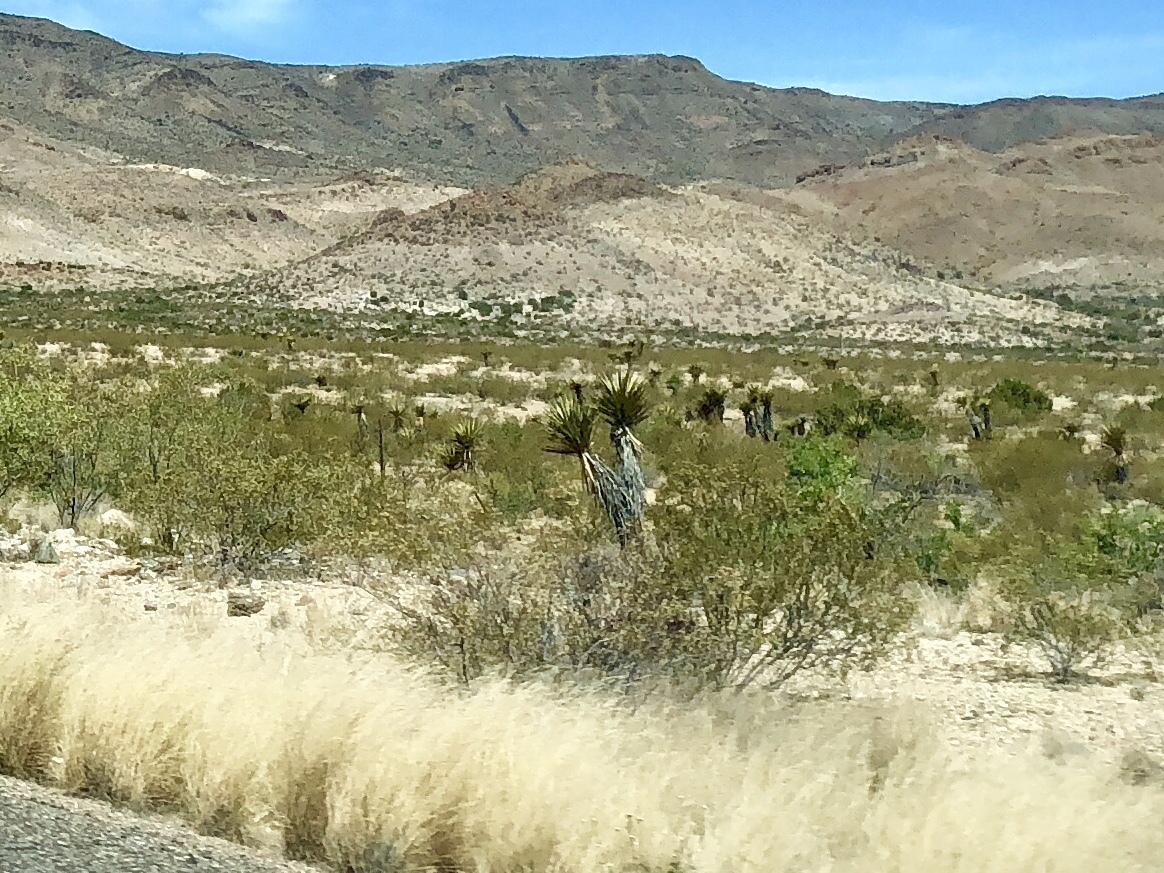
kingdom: Plantae
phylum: Tracheophyta
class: Magnoliopsida
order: Zygophyllales
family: Zygophyllaceae
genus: Larrea
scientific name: Larrea tridentata
